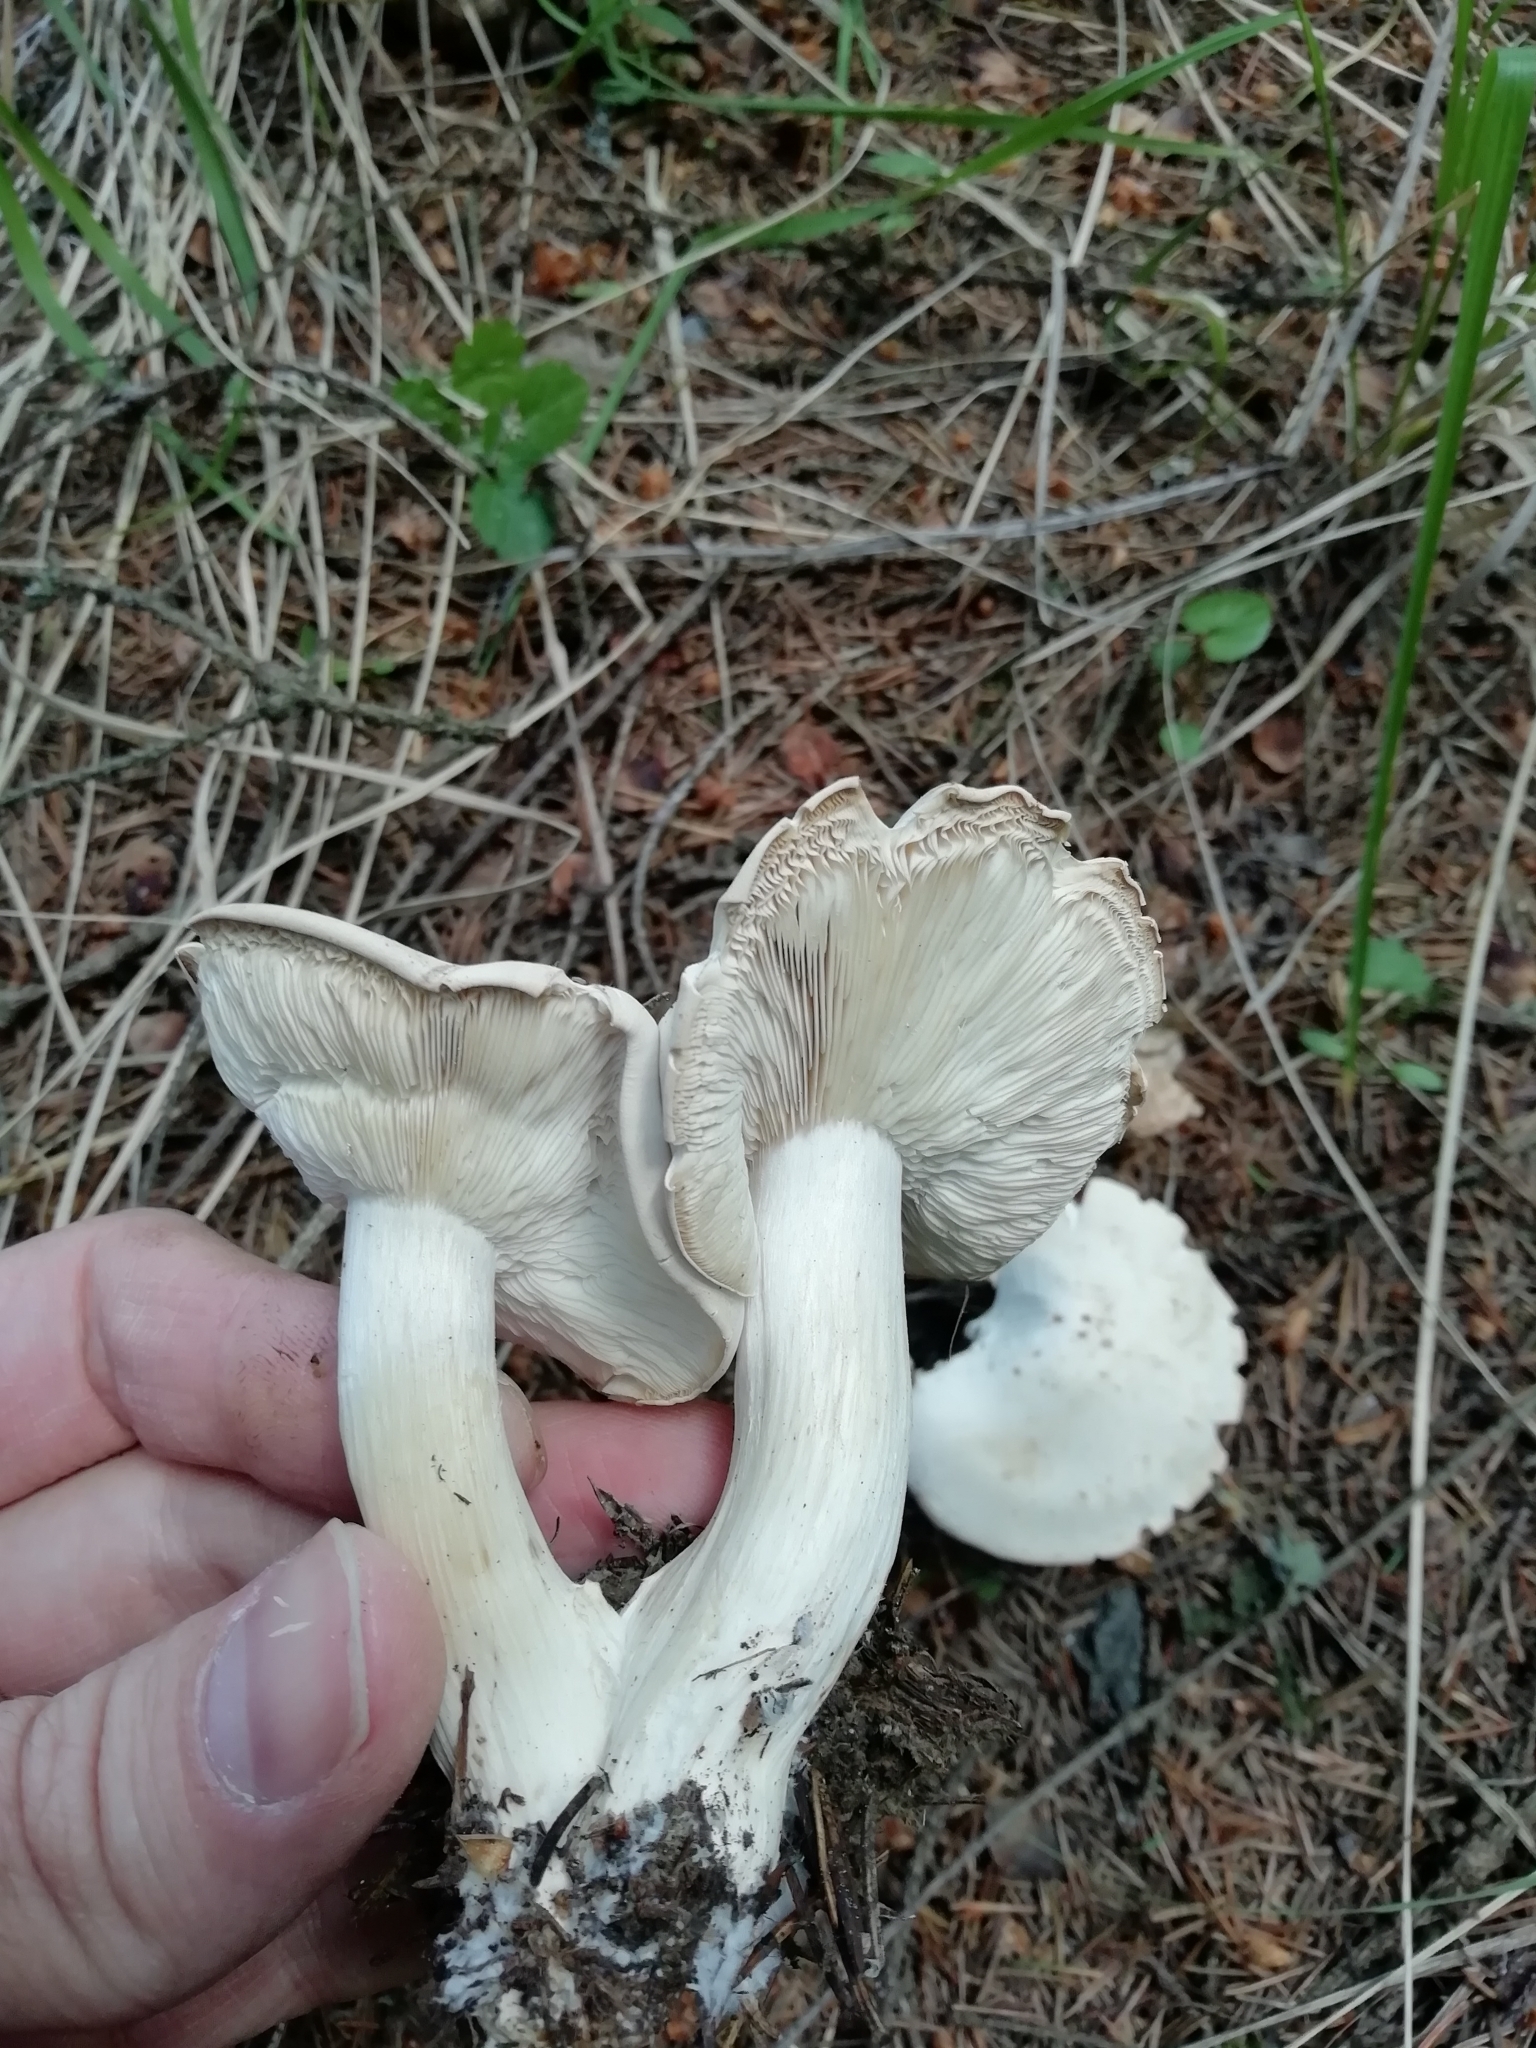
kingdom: Fungi
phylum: Basidiomycota
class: Agaricomycetes
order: Agaricales
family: Lyophyllaceae
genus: Calocybe
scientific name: Calocybe gambosa
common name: St. george's mushroom
